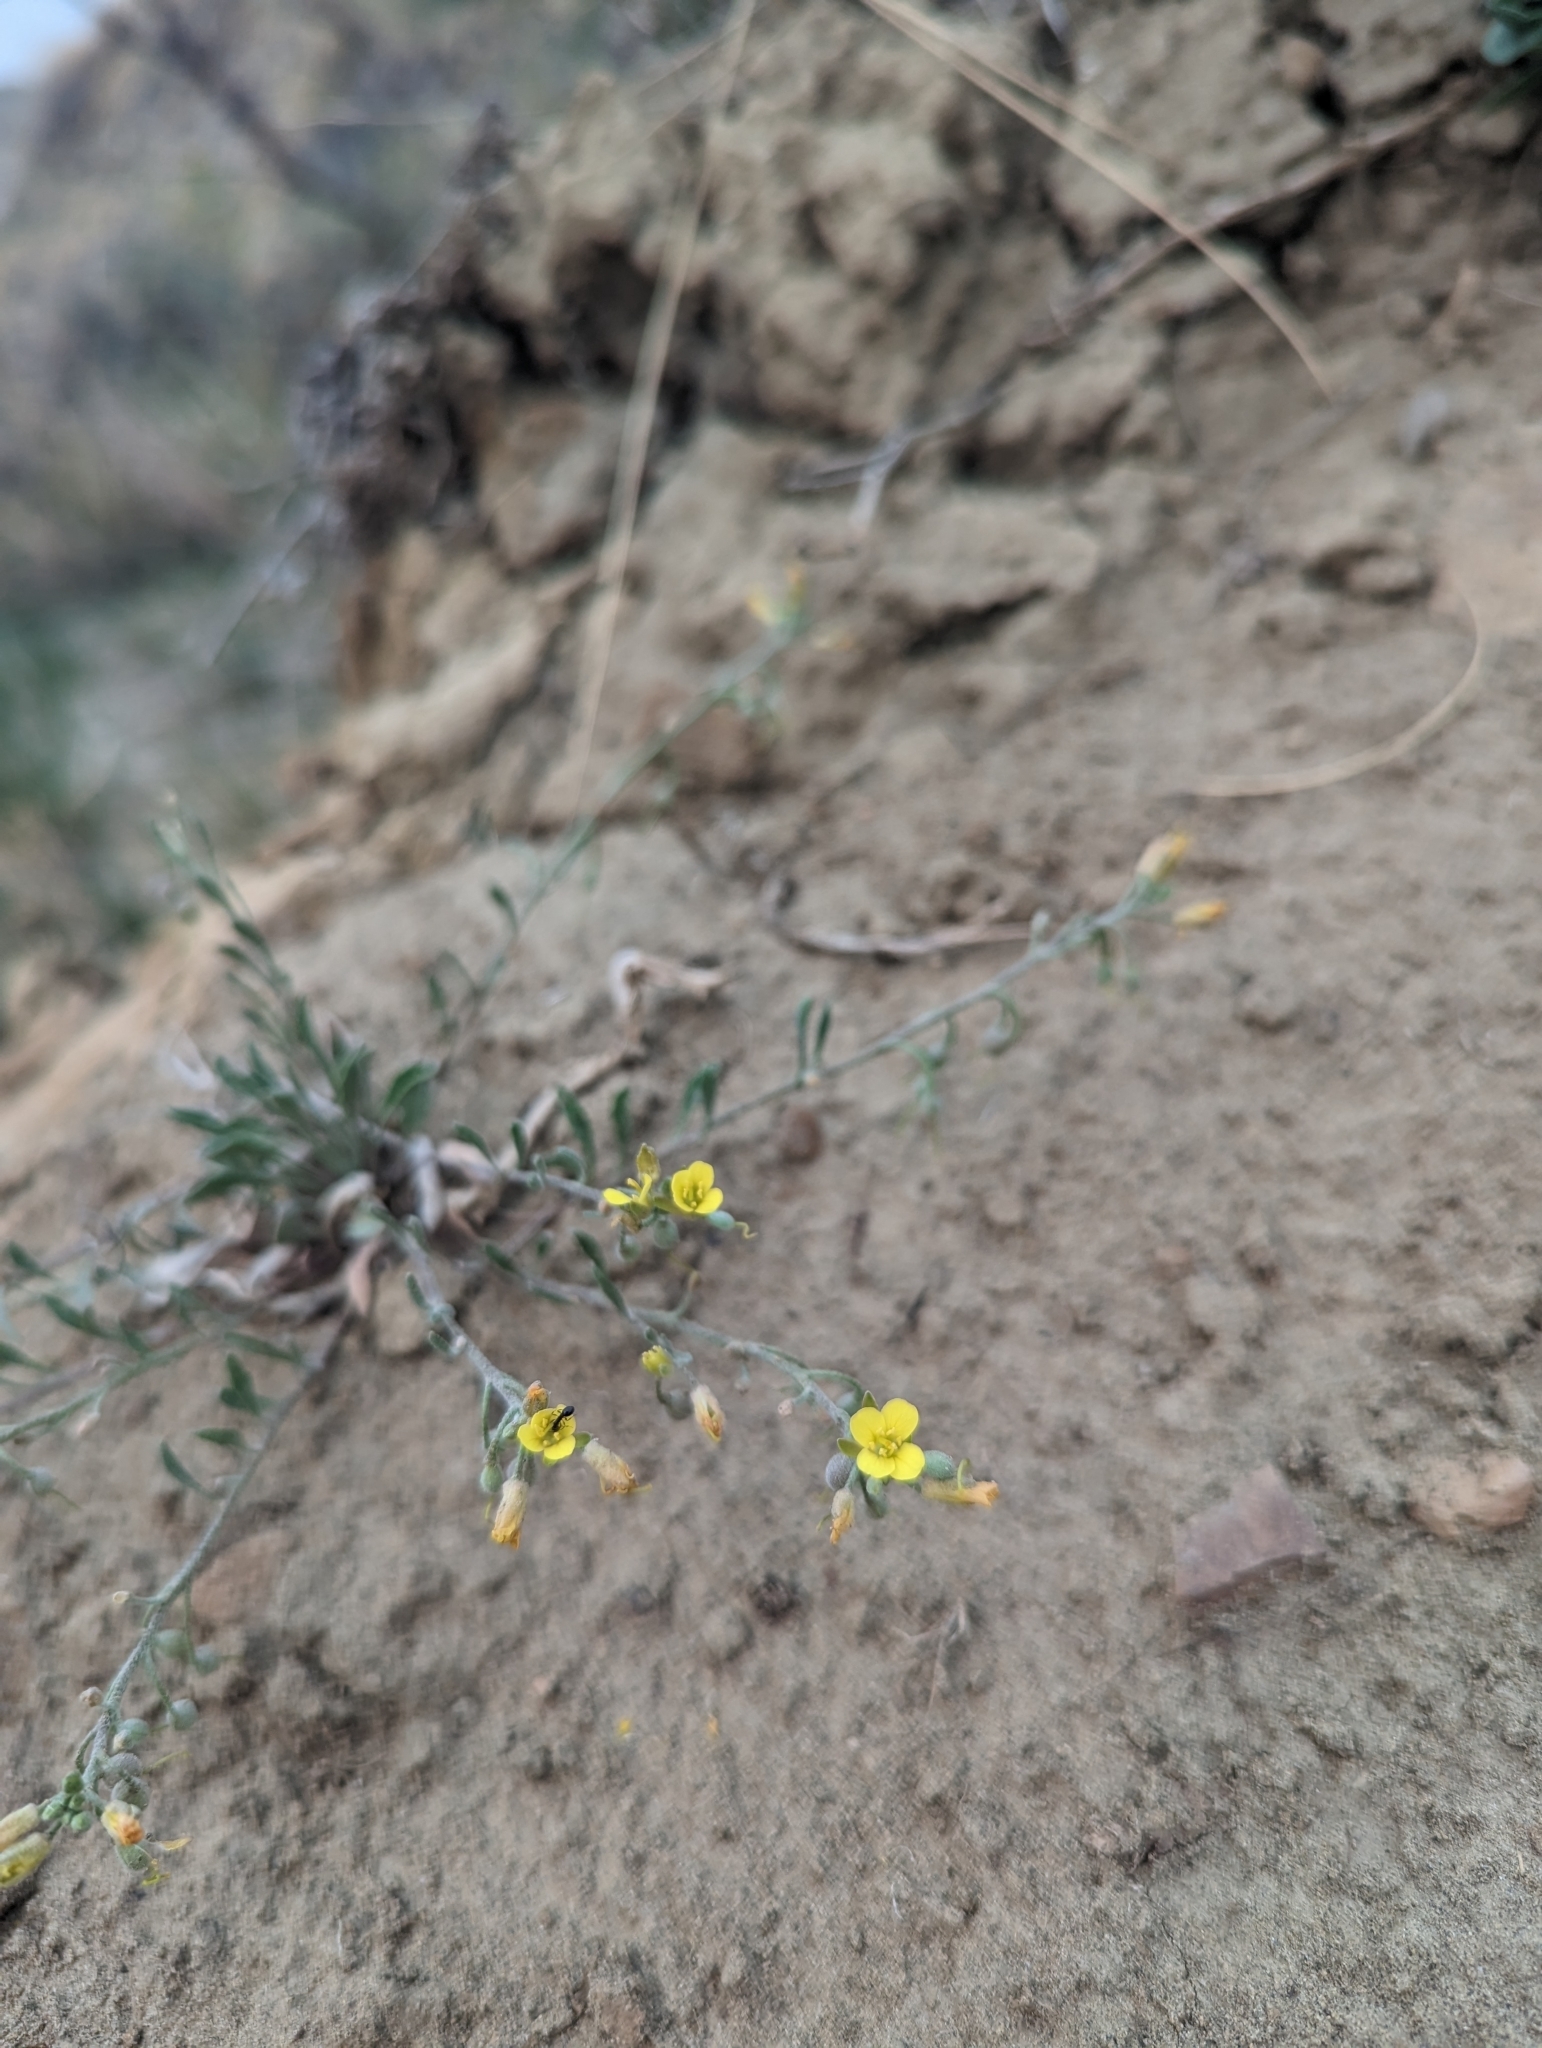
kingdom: Plantae
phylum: Tracheophyta
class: Magnoliopsida
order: Brassicales
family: Brassicaceae
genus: Physaria
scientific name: Physaria arenosa
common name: Great plains bladderpod
